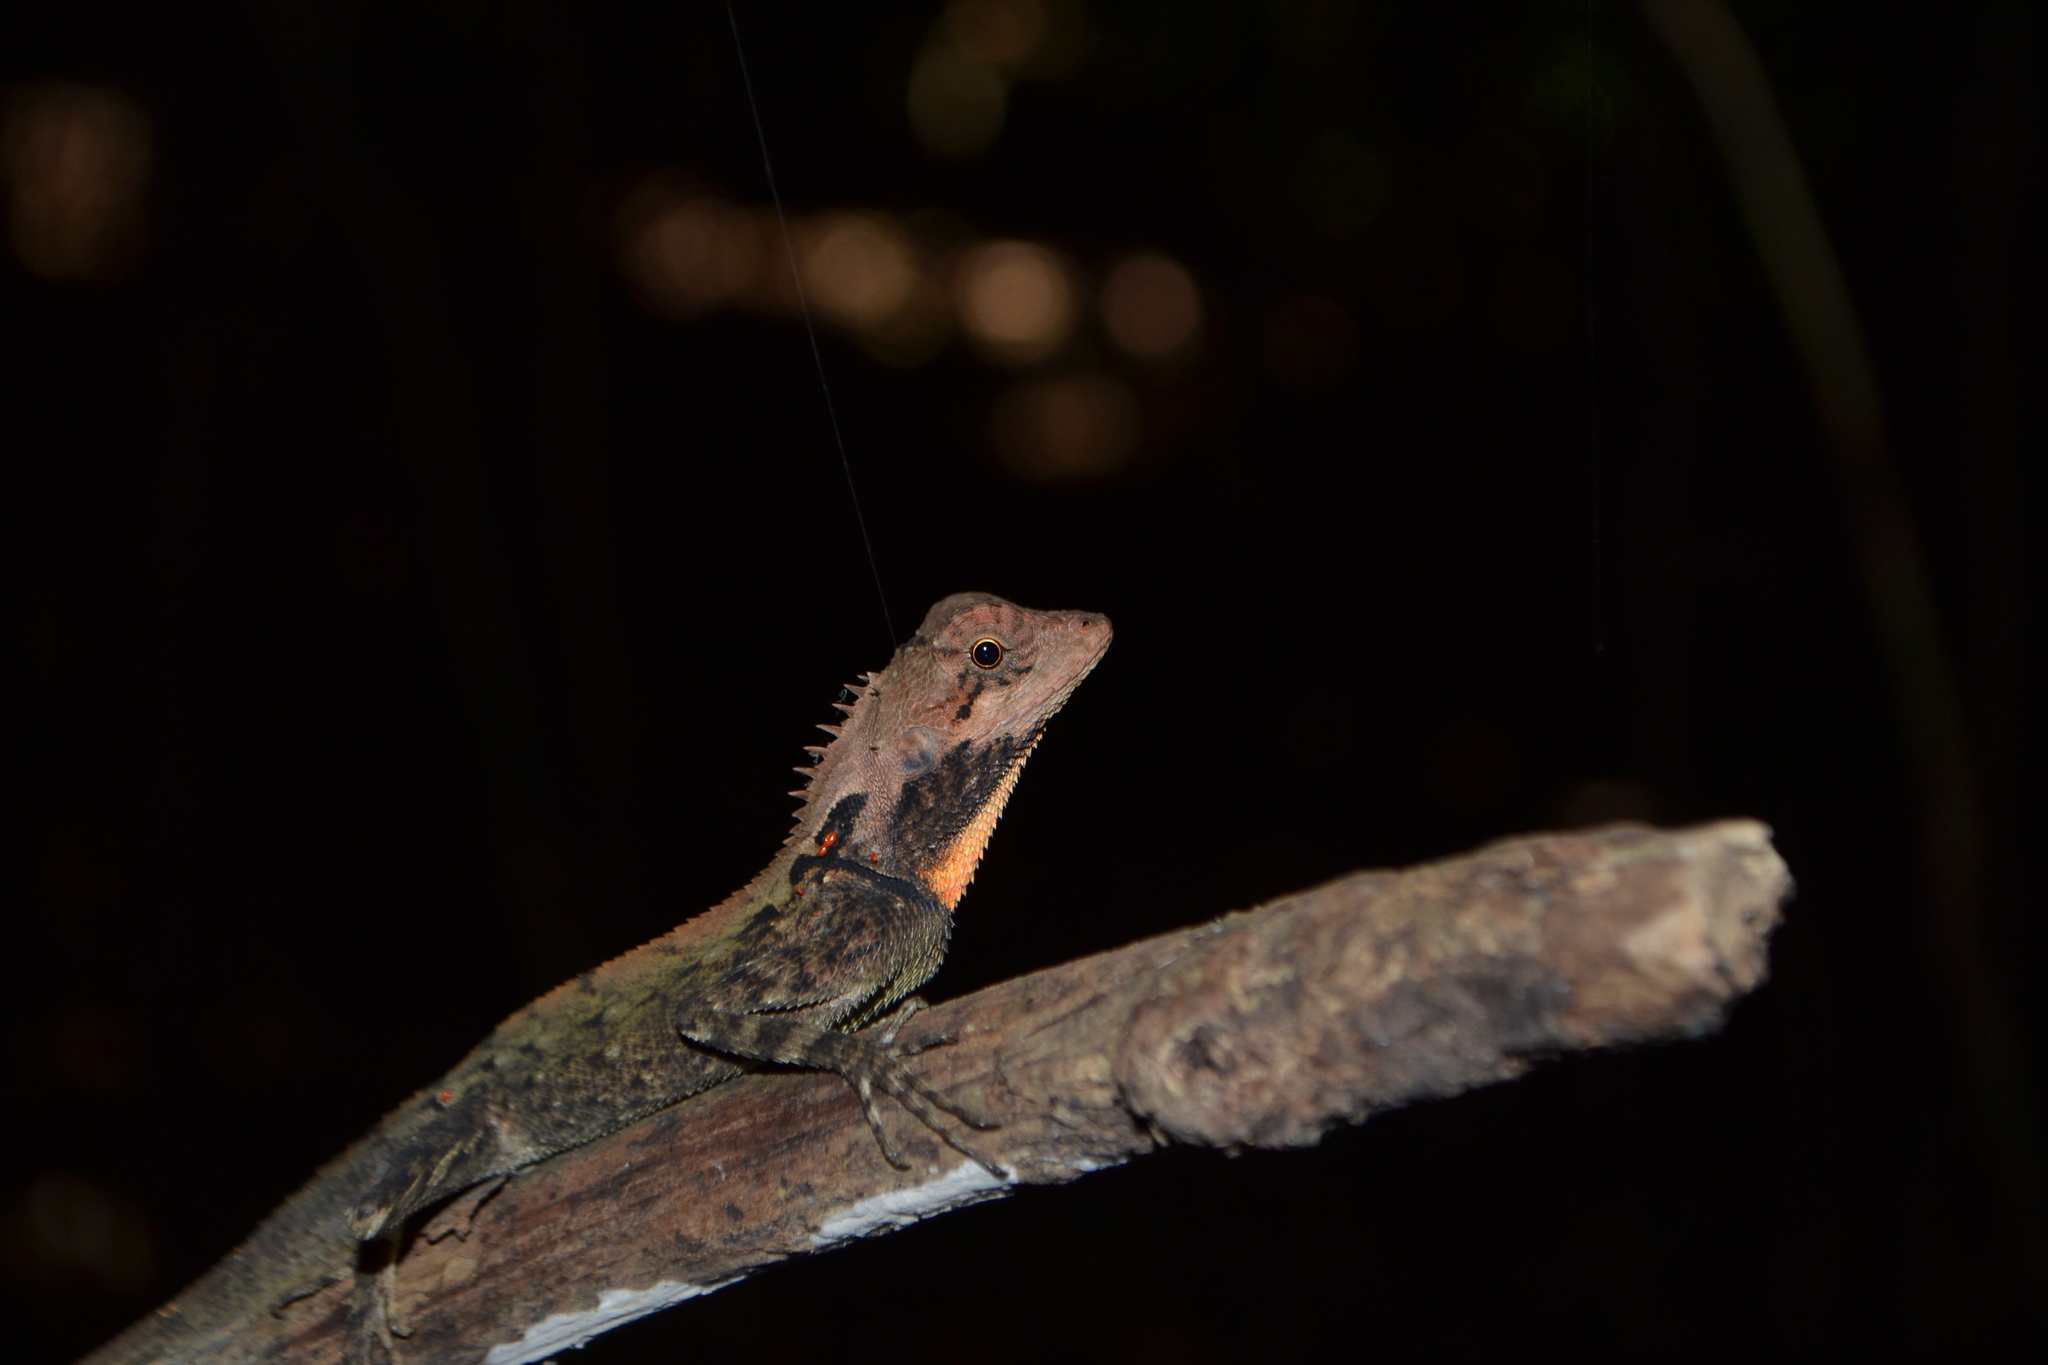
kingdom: Animalia
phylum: Chordata
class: Squamata
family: Agamidae
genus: Monilesaurus
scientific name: Monilesaurus rouxii
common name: Roux's forest lizard
